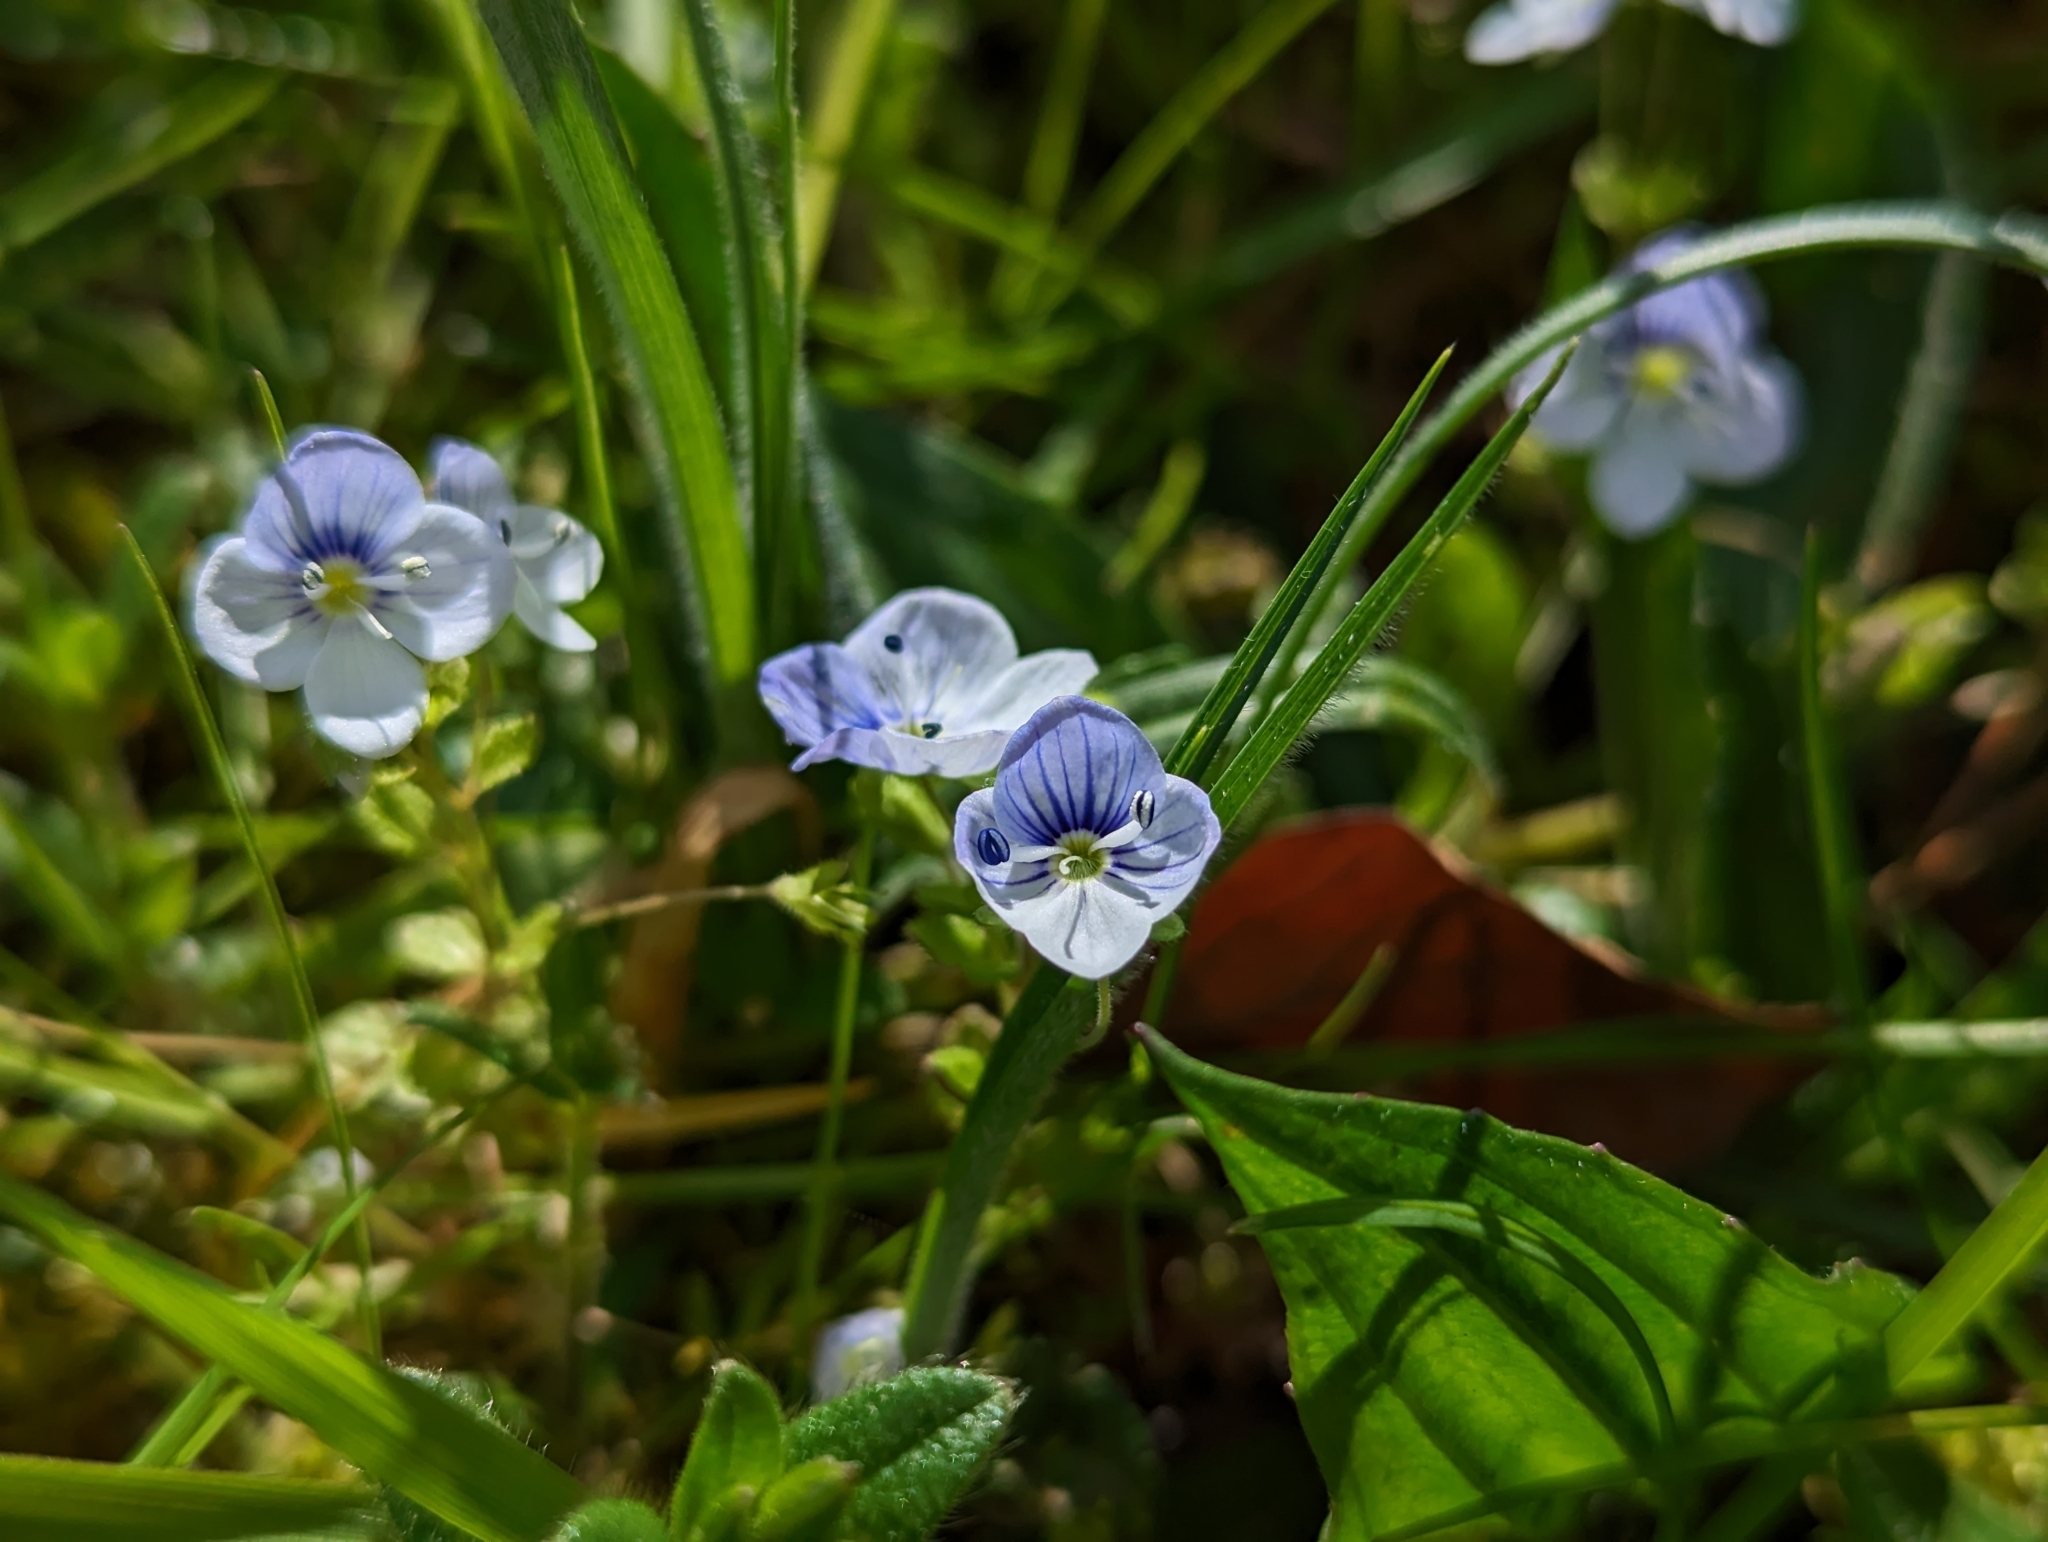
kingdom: Plantae
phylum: Tracheophyta
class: Magnoliopsida
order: Lamiales
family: Plantaginaceae
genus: Veronica
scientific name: Veronica filiformis
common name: Slender speedwell
